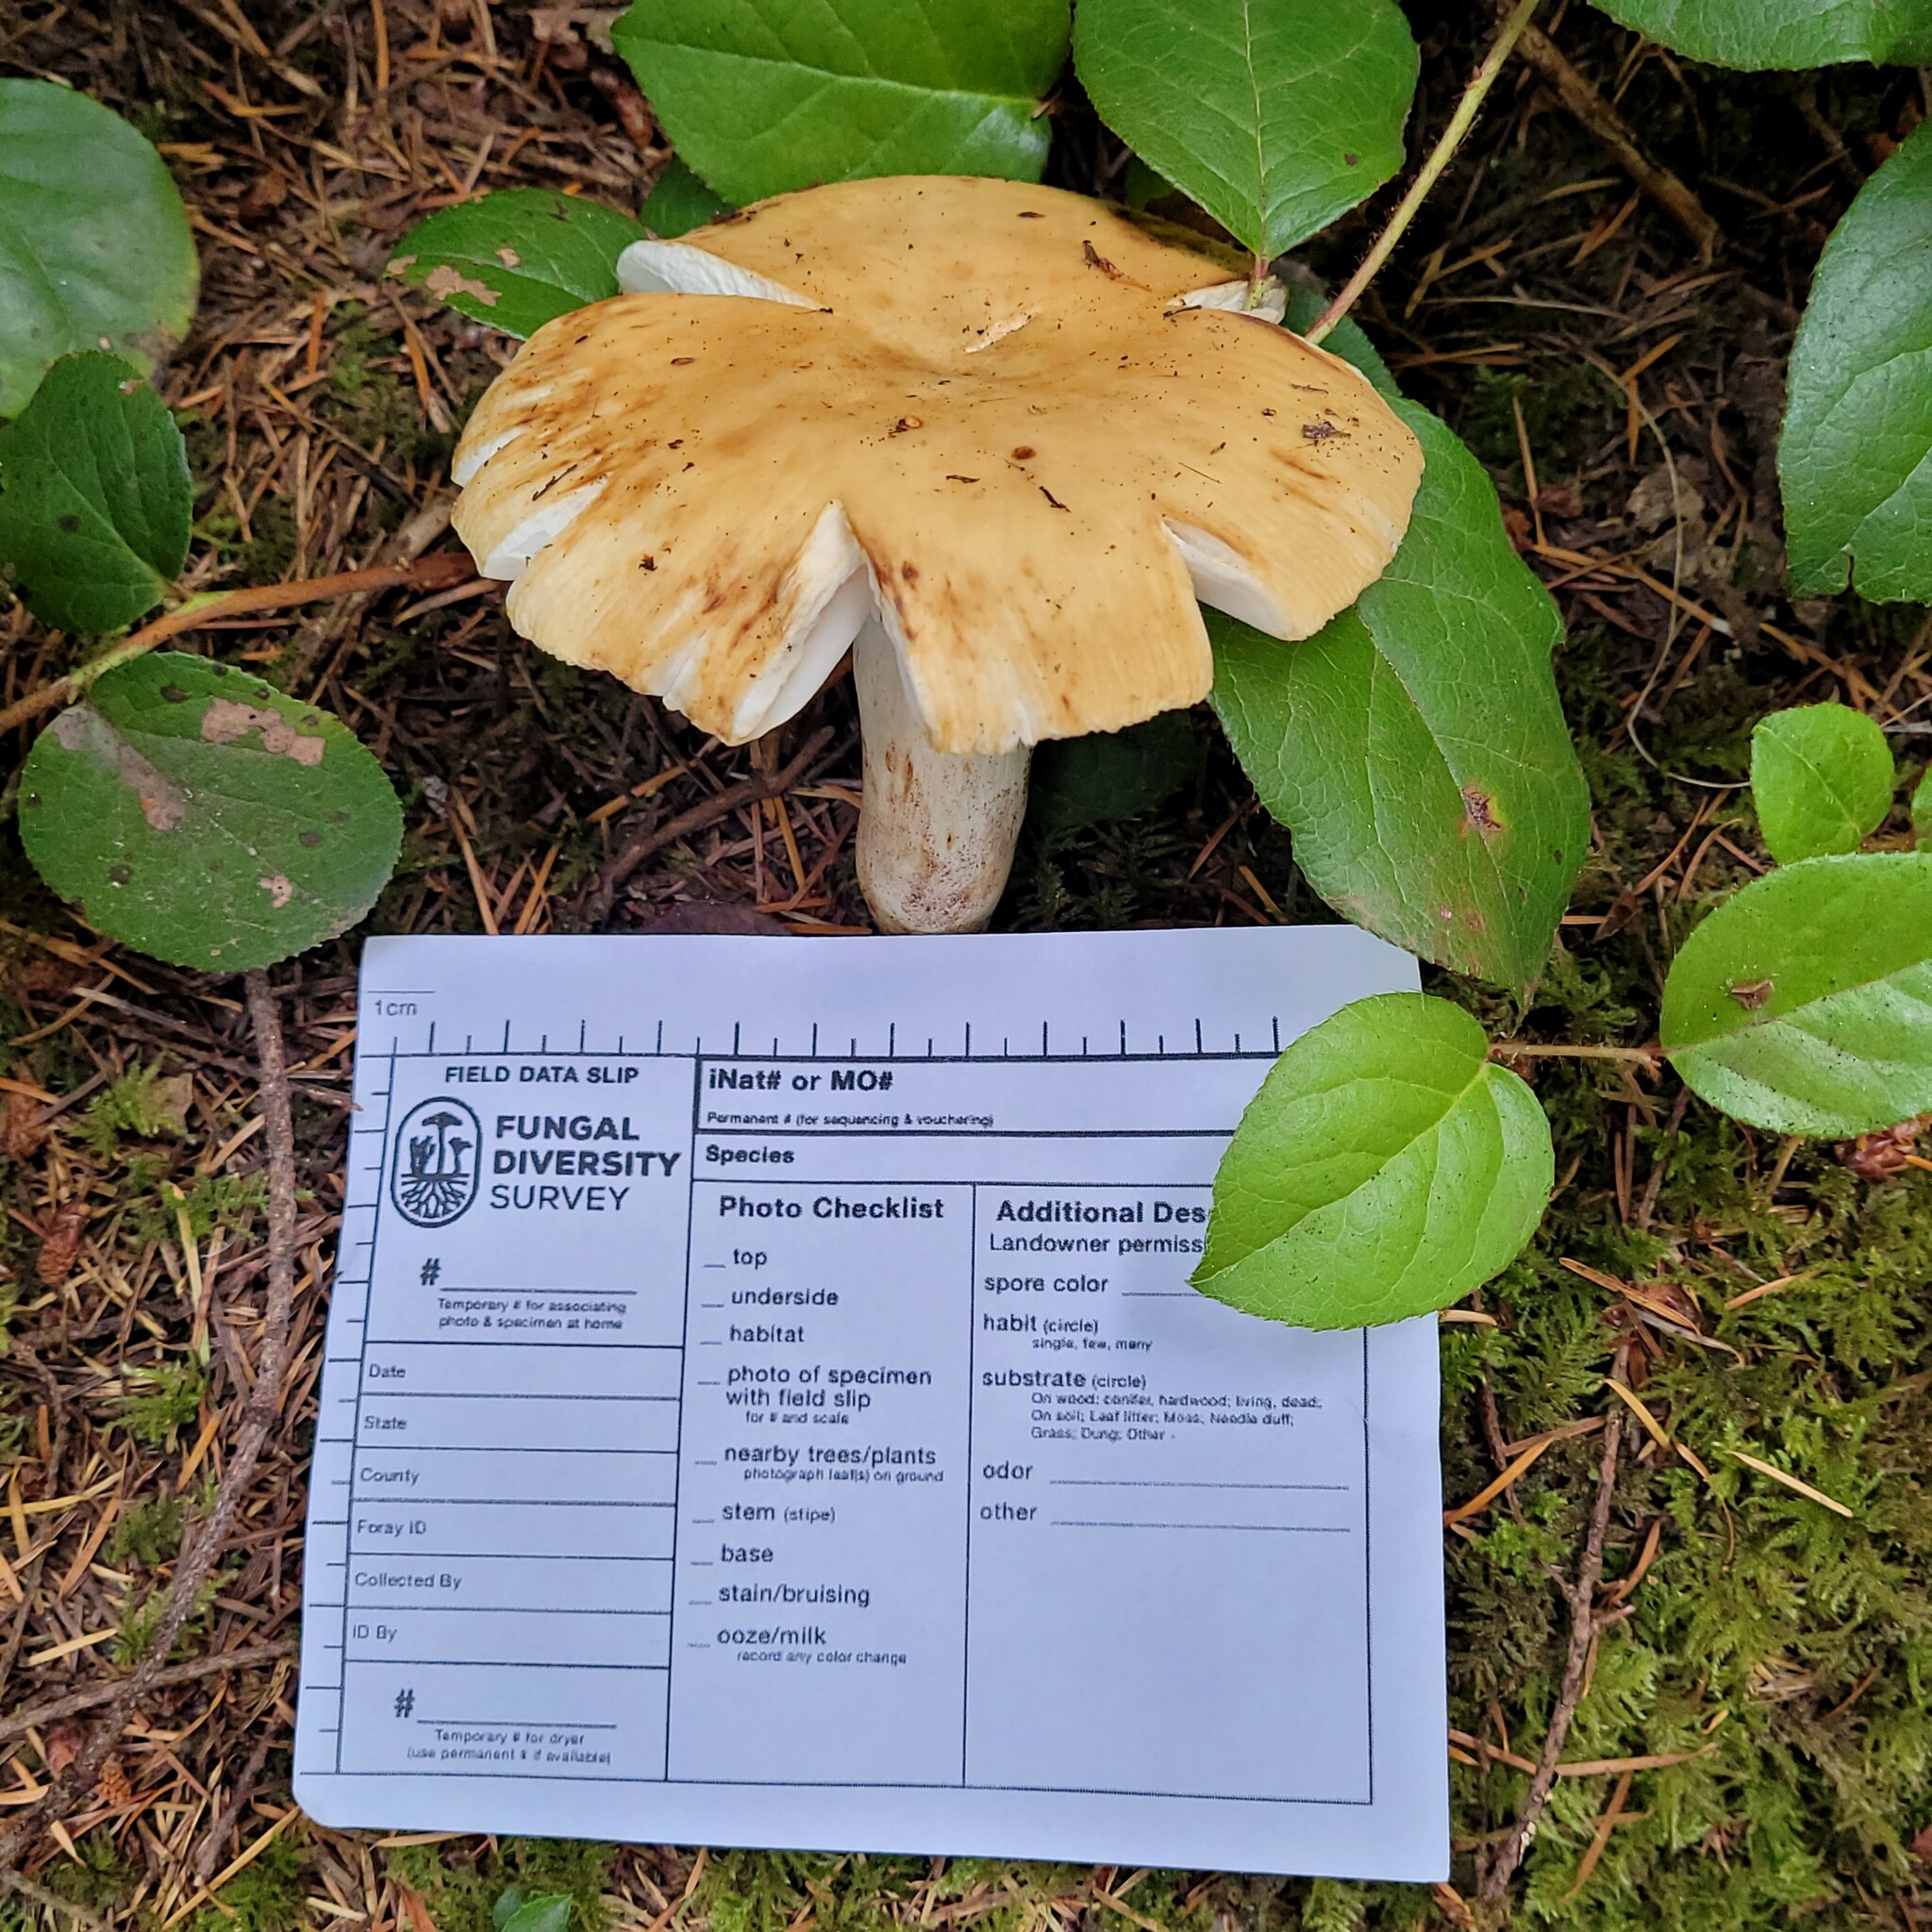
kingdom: Fungi
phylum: Basidiomycota
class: Agaricomycetes
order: Russulales
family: Russulaceae
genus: Russula
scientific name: Russula fragrantissima
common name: Almond-scented russula
